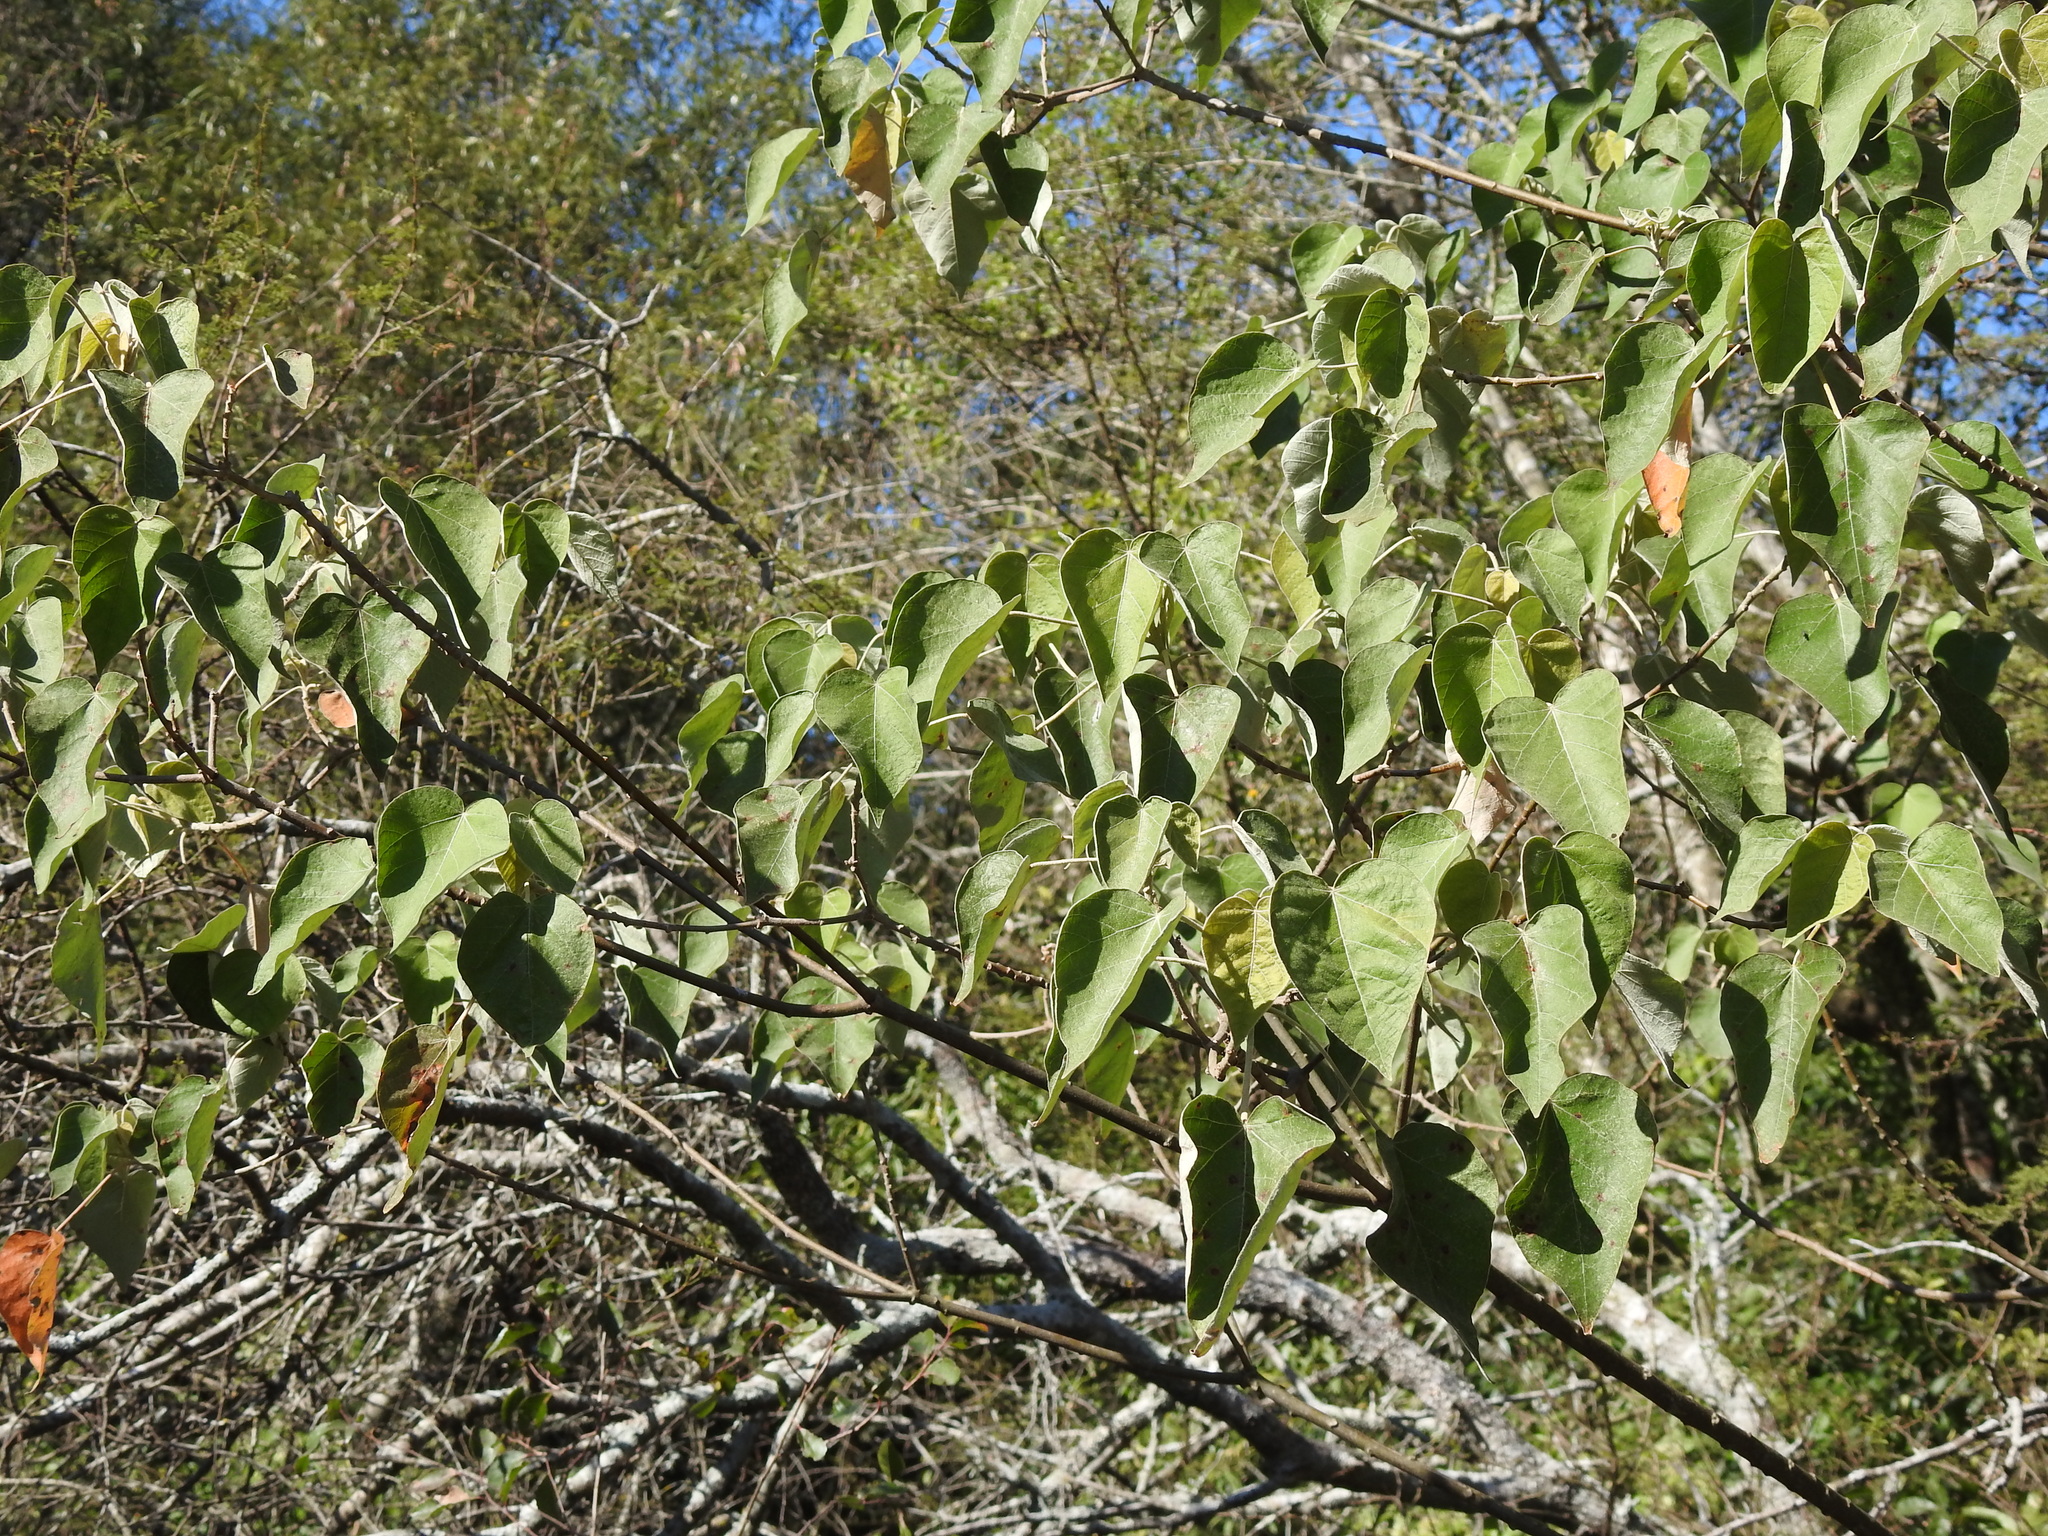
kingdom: Plantae
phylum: Tracheophyta
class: Magnoliopsida
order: Malpighiales
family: Euphorbiaceae
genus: Croton
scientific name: Croton urucurana
